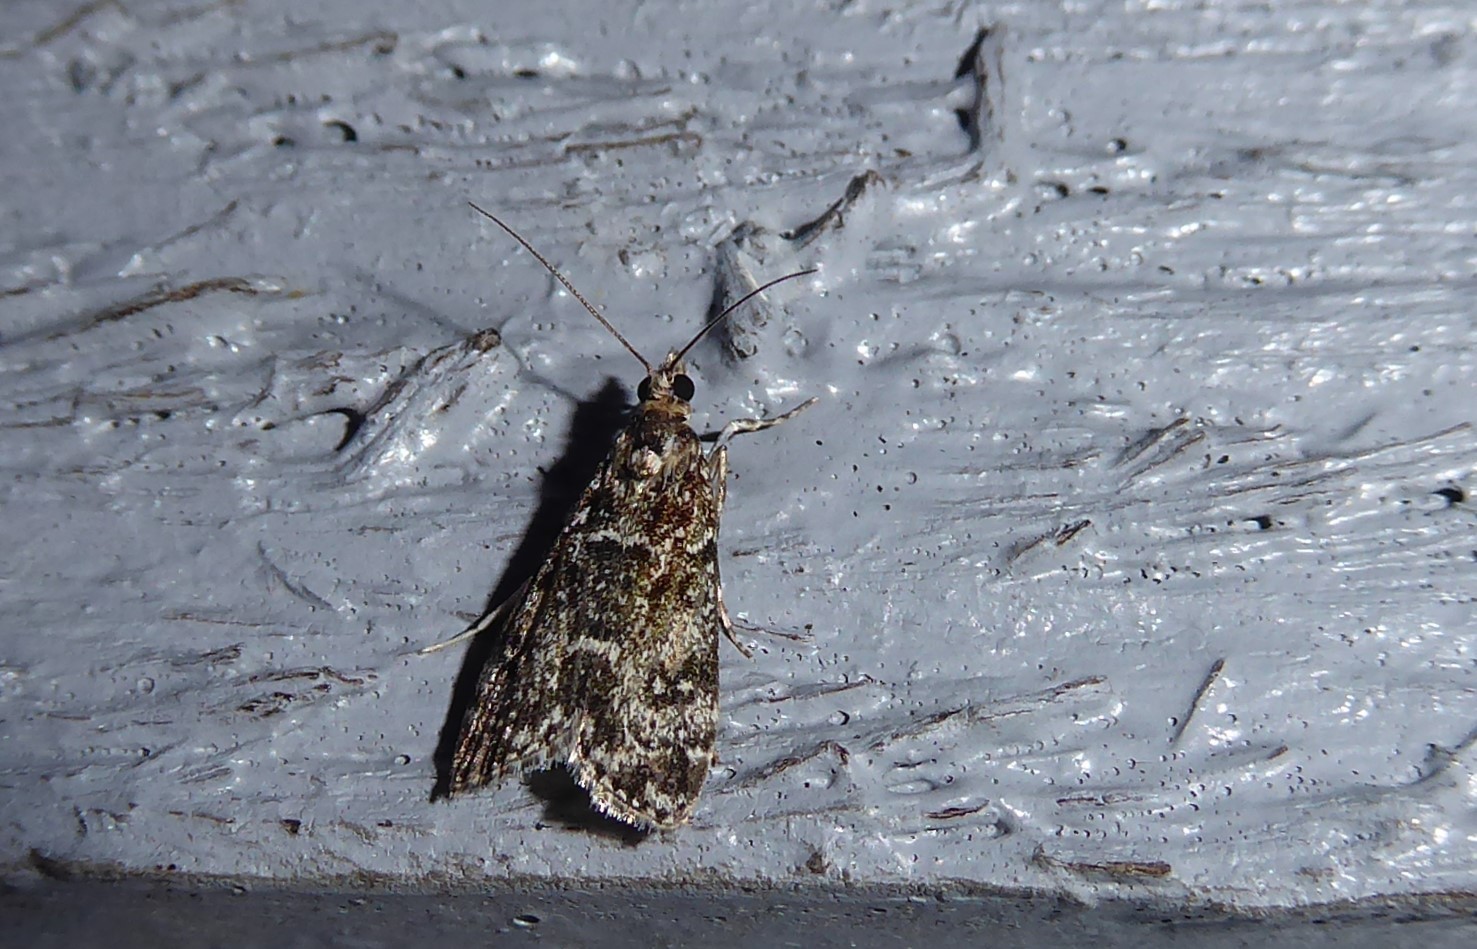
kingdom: Animalia
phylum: Arthropoda
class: Insecta
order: Lepidoptera
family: Crambidae
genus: Eudonia
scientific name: Eudonia philerga
